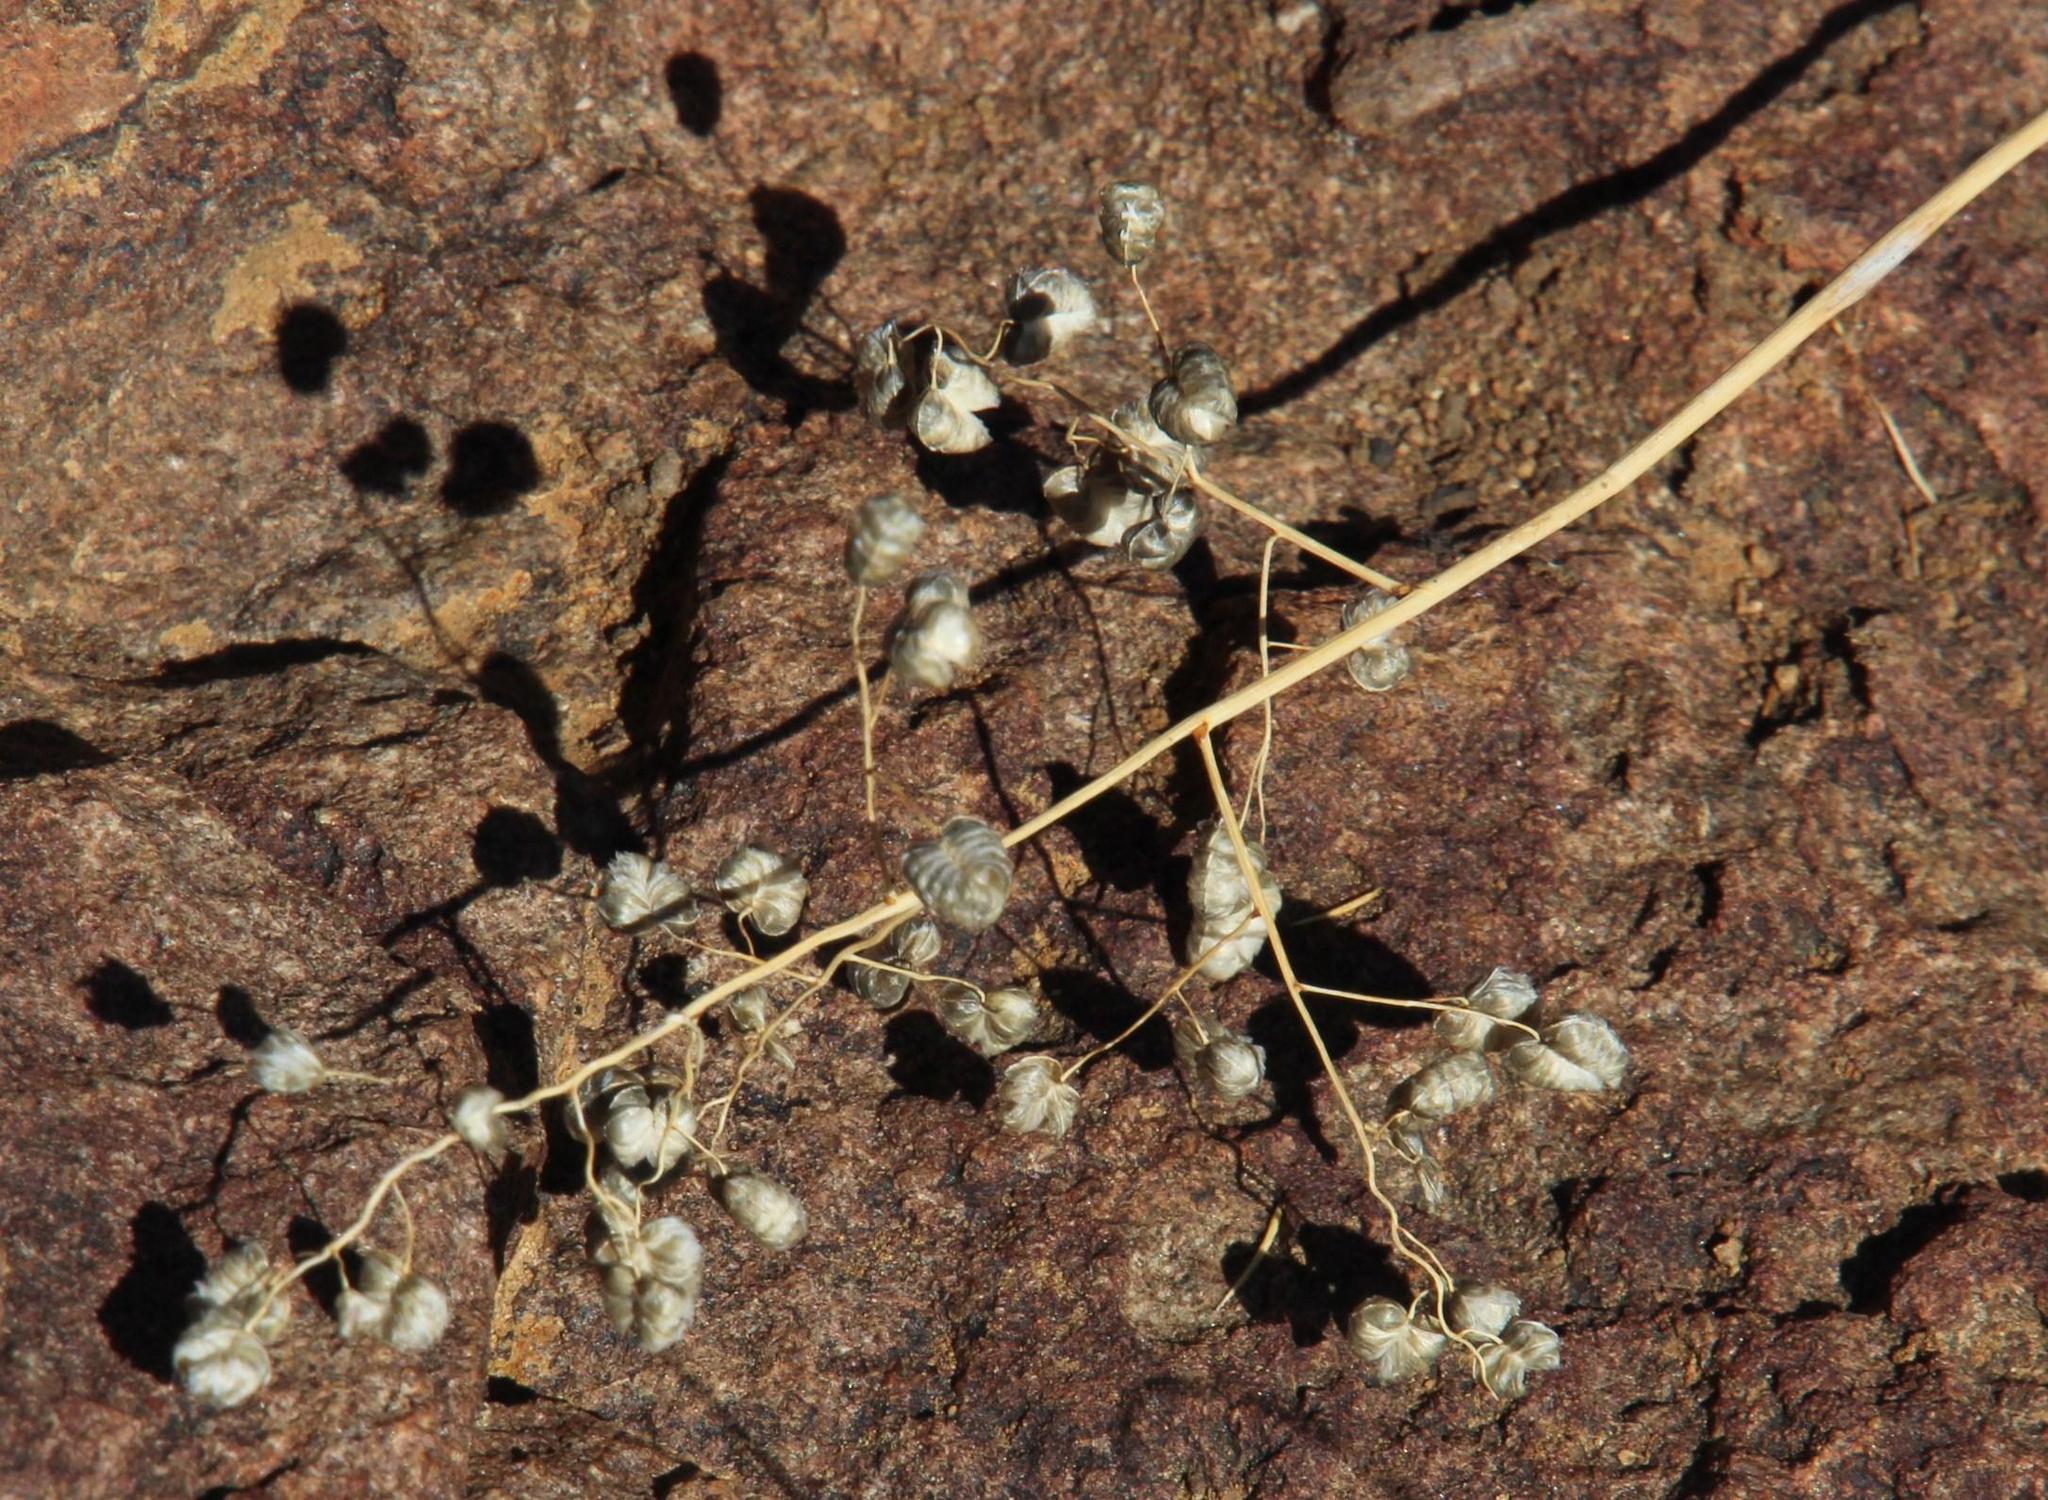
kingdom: Plantae
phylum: Tracheophyta
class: Liliopsida
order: Poales
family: Poaceae
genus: Eragrostis
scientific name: Eragrostis obtusa
